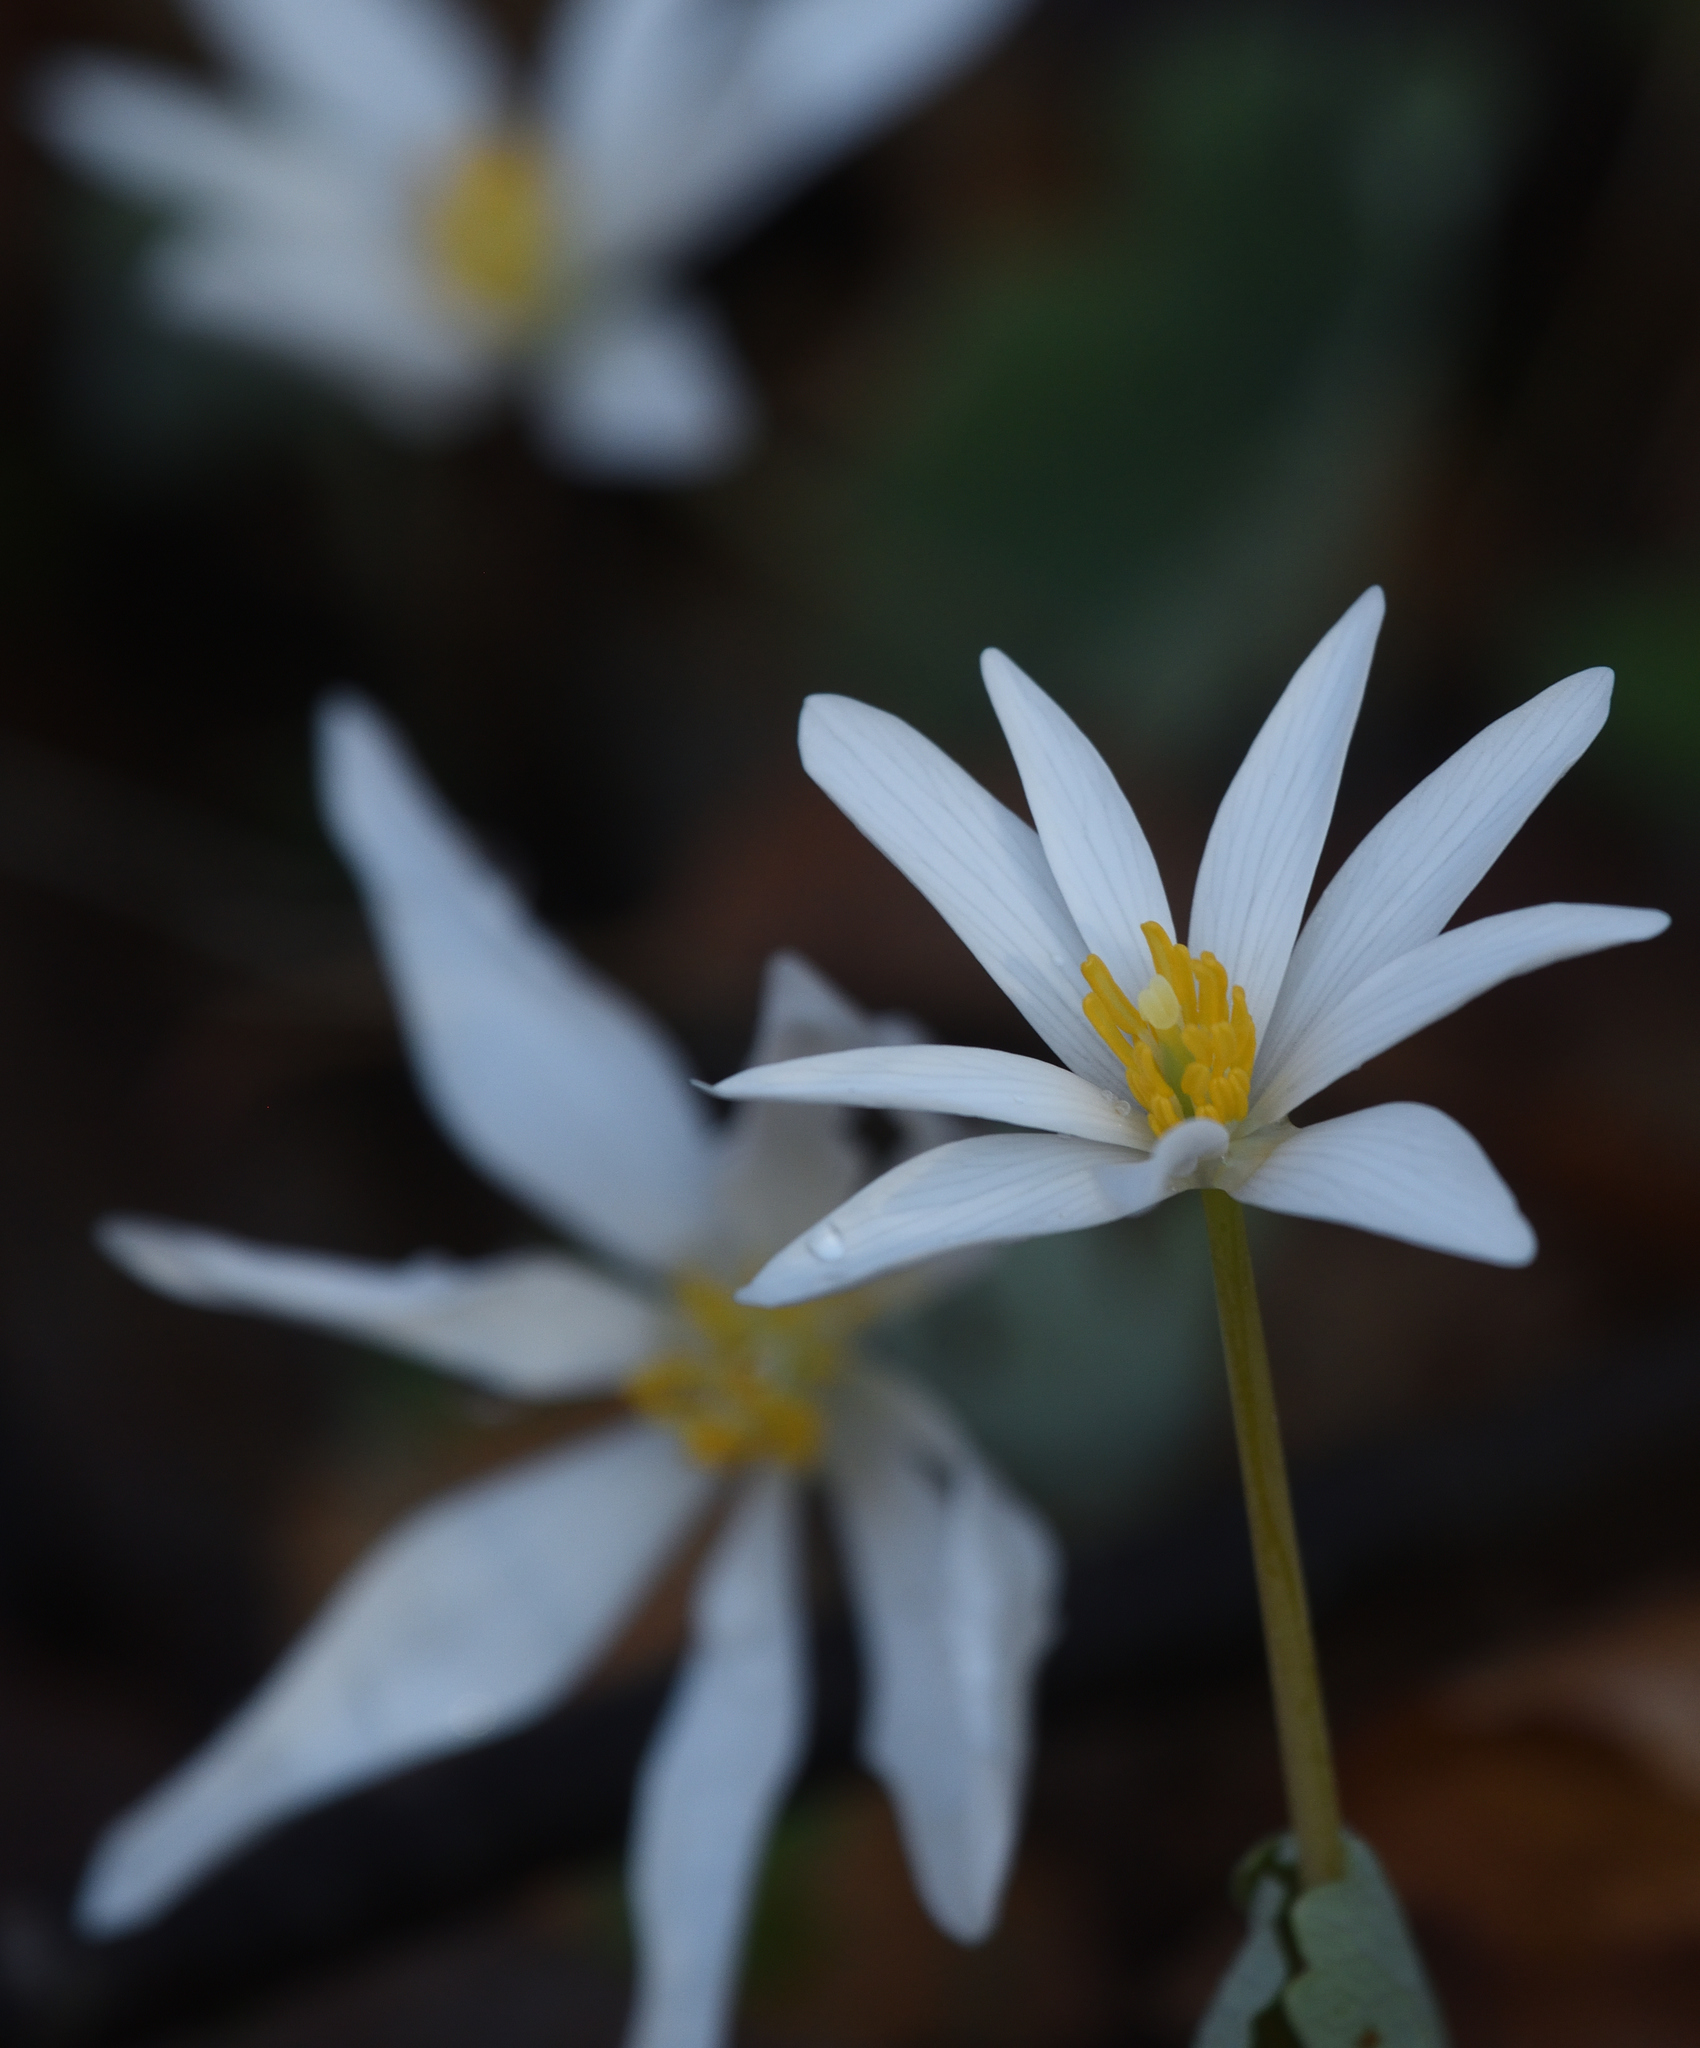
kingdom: Plantae
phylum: Tracheophyta
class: Magnoliopsida
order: Ranunculales
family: Papaveraceae
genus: Sanguinaria
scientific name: Sanguinaria canadensis
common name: Bloodroot
